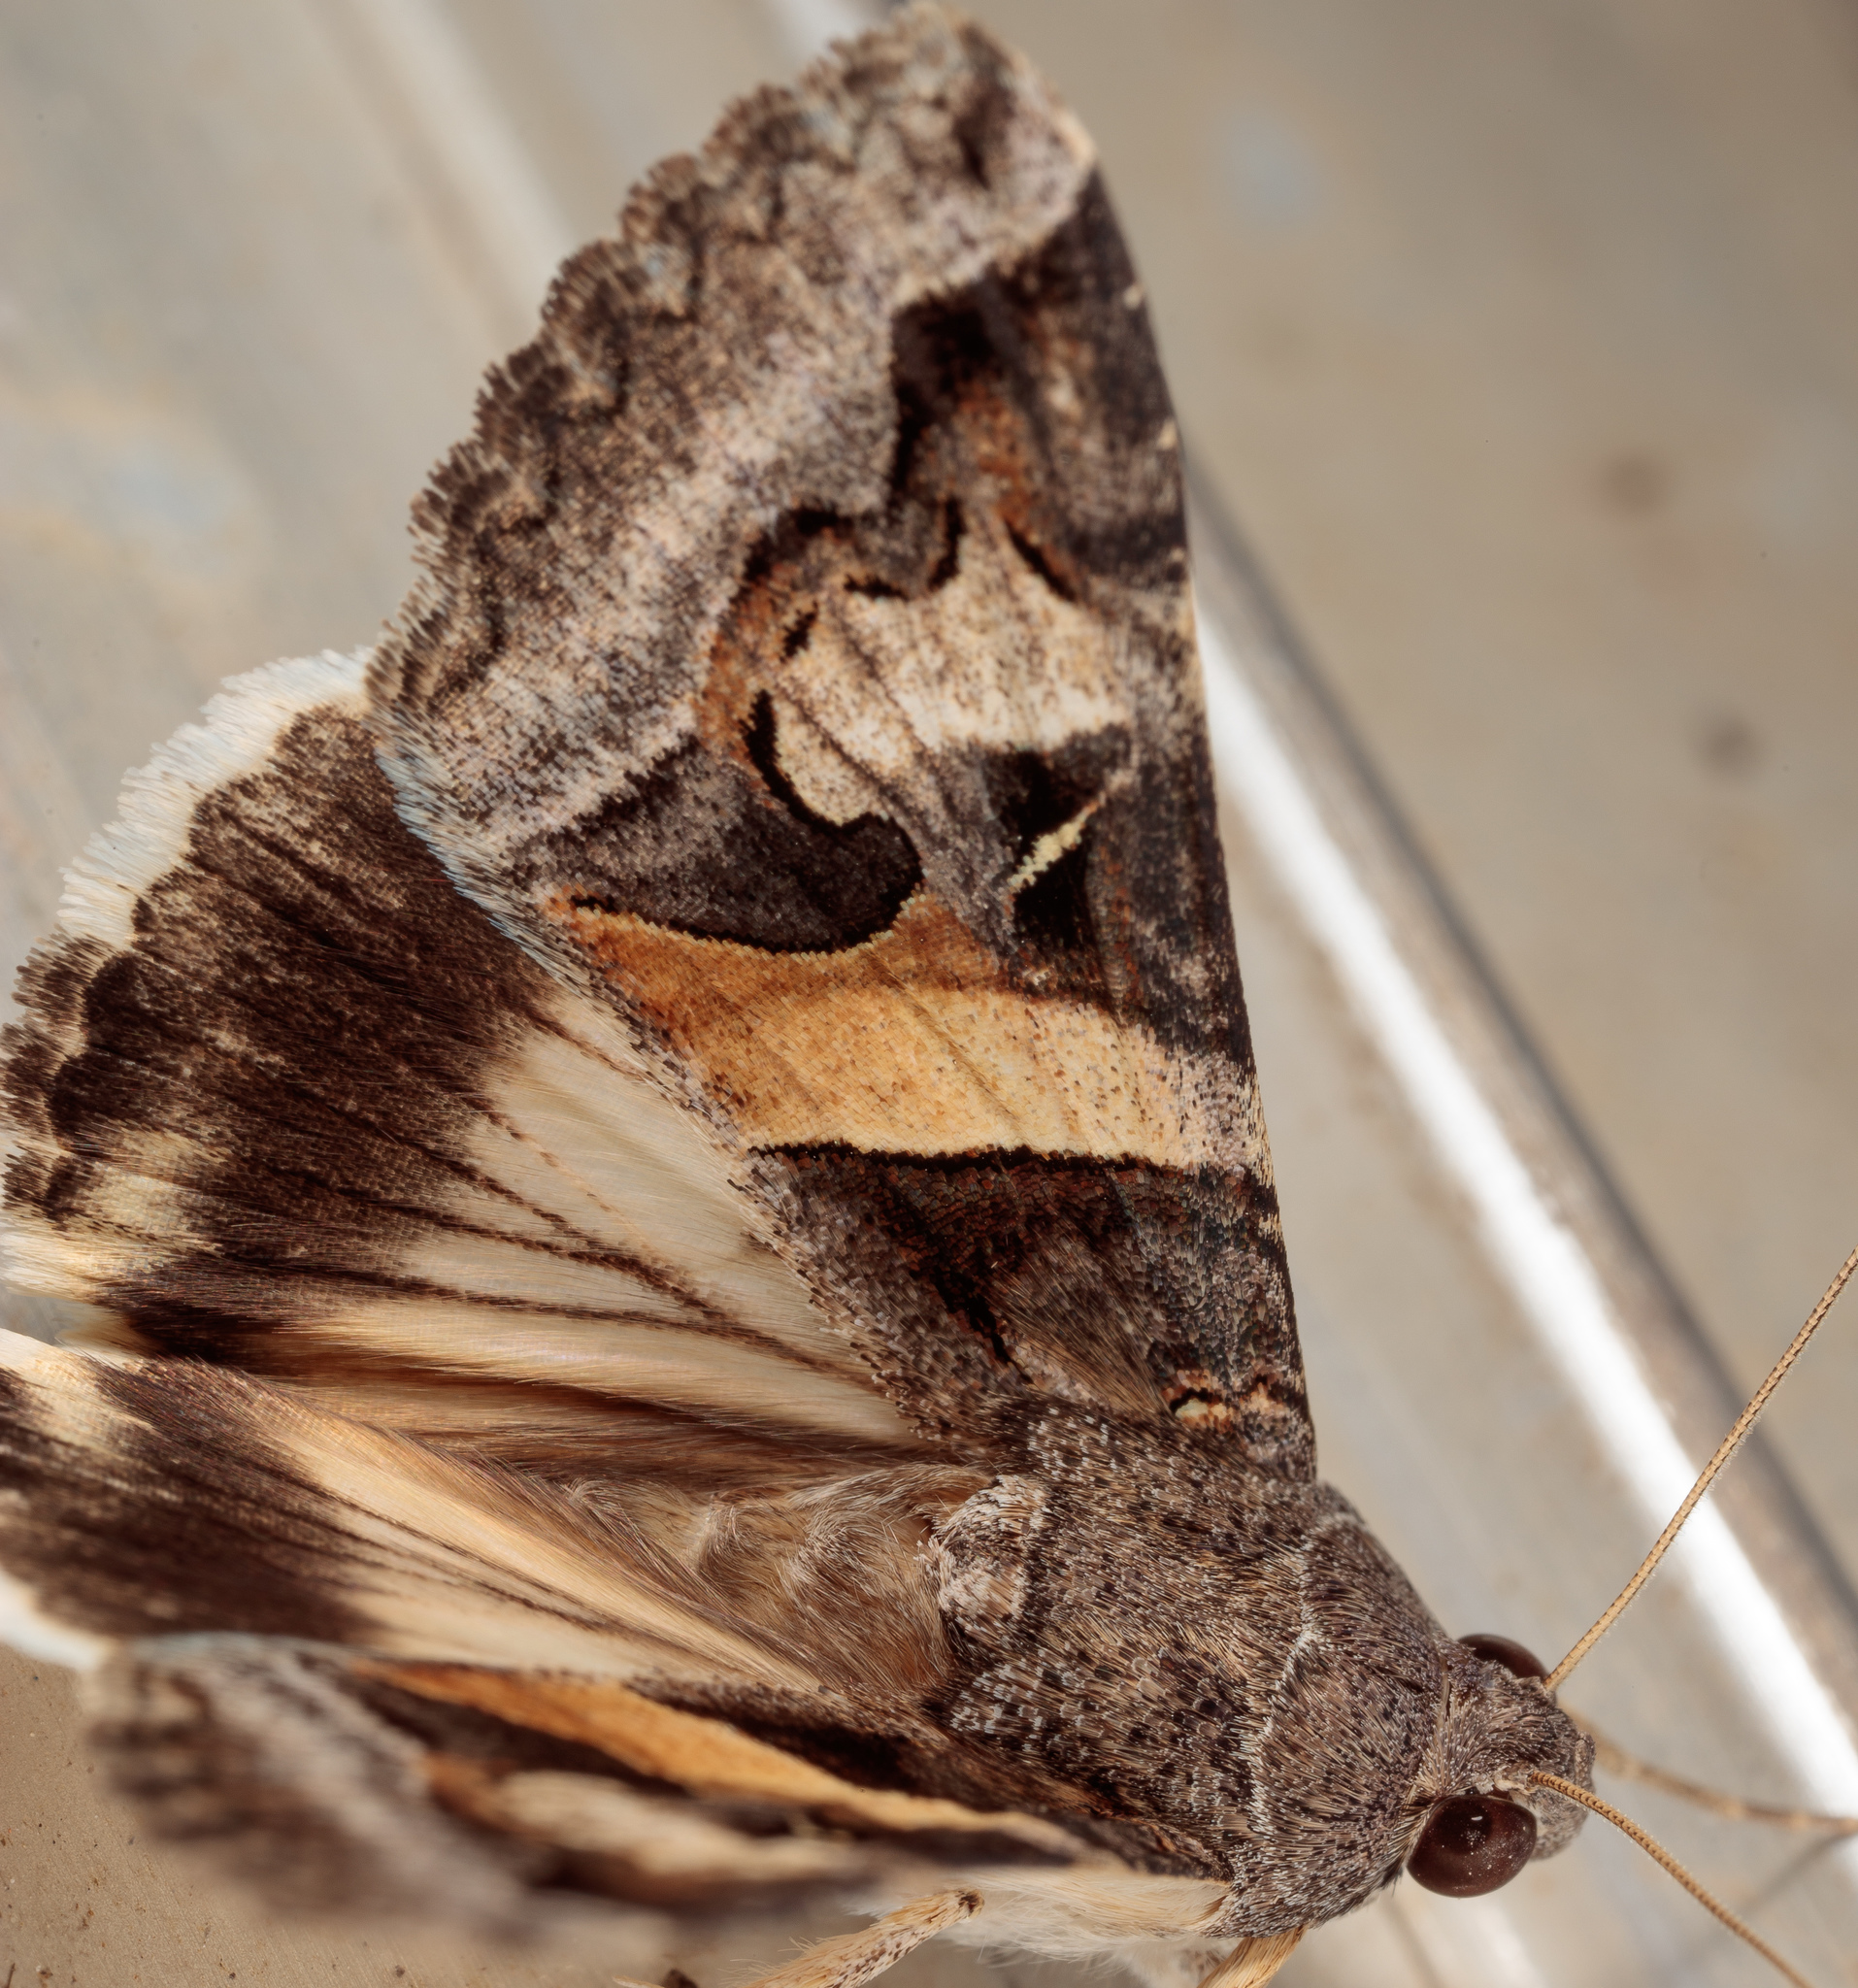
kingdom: Animalia
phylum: Arthropoda
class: Insecta
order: Lepidoptera
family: Erebidae
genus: Melipotis
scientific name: Melipotis indomita
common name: Moth
